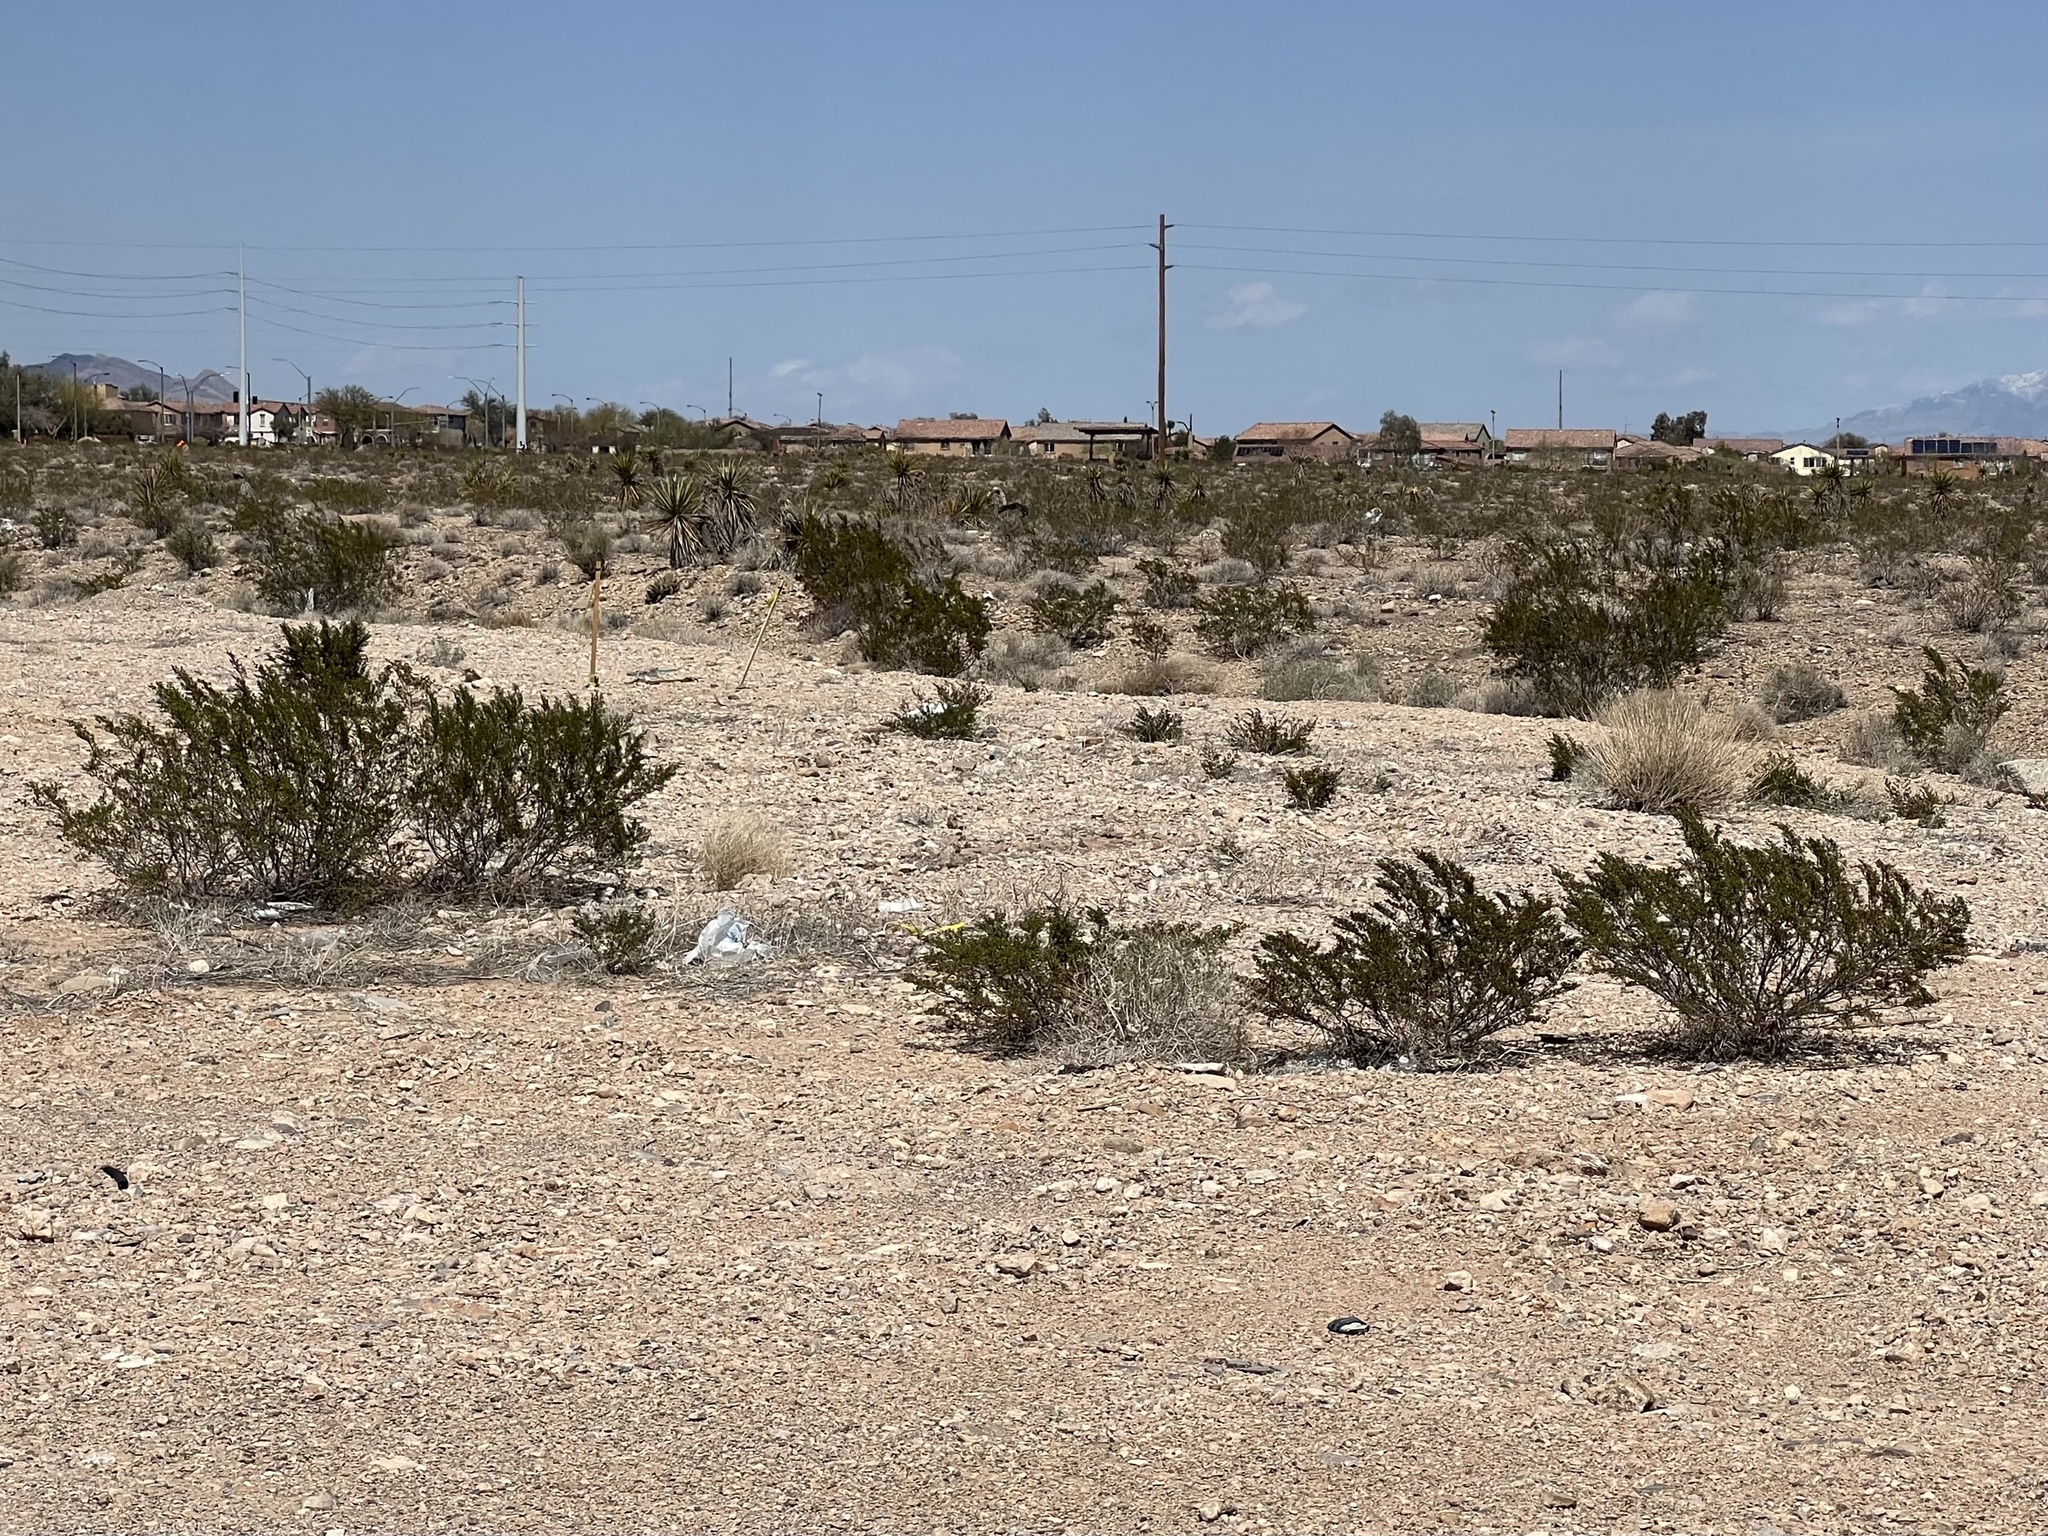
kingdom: Plantae
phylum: Tracheophyta
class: Magnoliopsida
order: Zygophyllales
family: Zygophyllaceae
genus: Larrea
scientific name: Larrea tridentata
